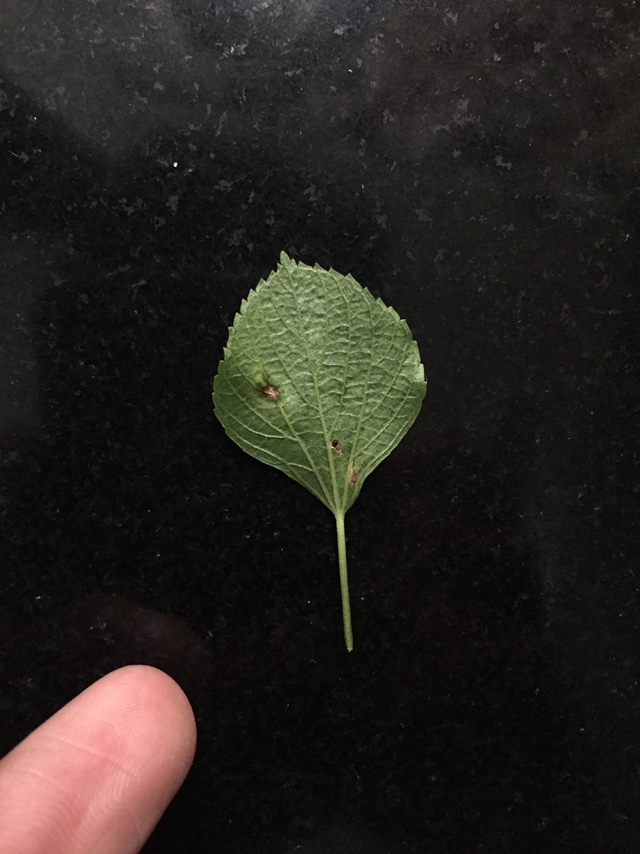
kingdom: Fungi
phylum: Ascomycota
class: Dothideomycetes
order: Mycosphaerellales
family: Mycosphaerellaceae
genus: Pseudocercospora
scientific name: Pseudocercospora acalyphae
